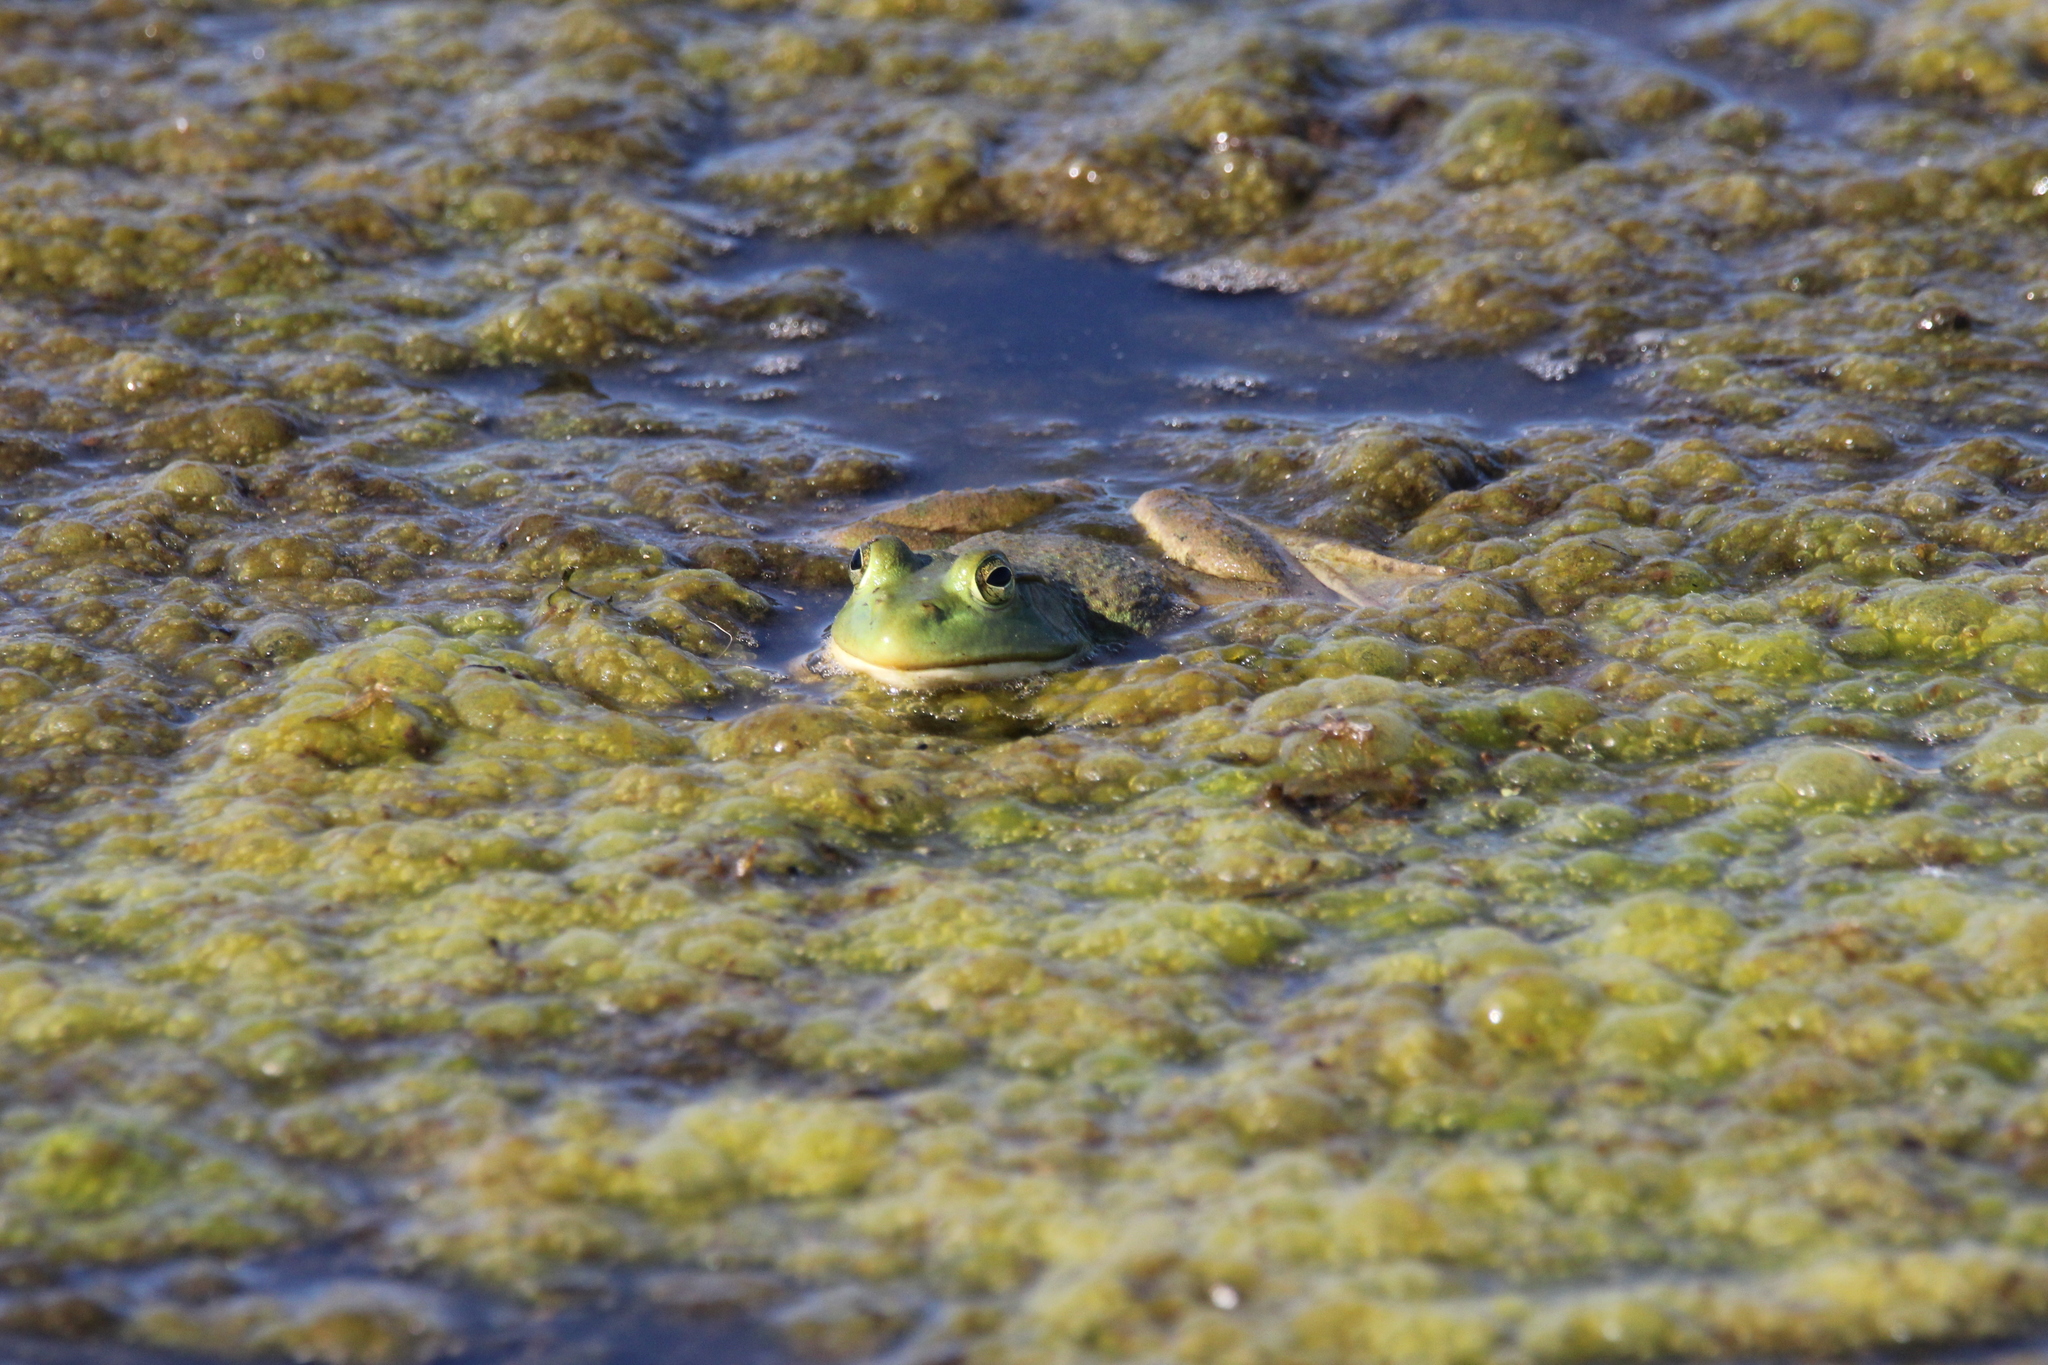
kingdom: Animalia
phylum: Chordata
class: Amphibia
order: Anura
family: Ranidae
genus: Lithobates
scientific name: Lithobates catesbeianus
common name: American bullfrog
